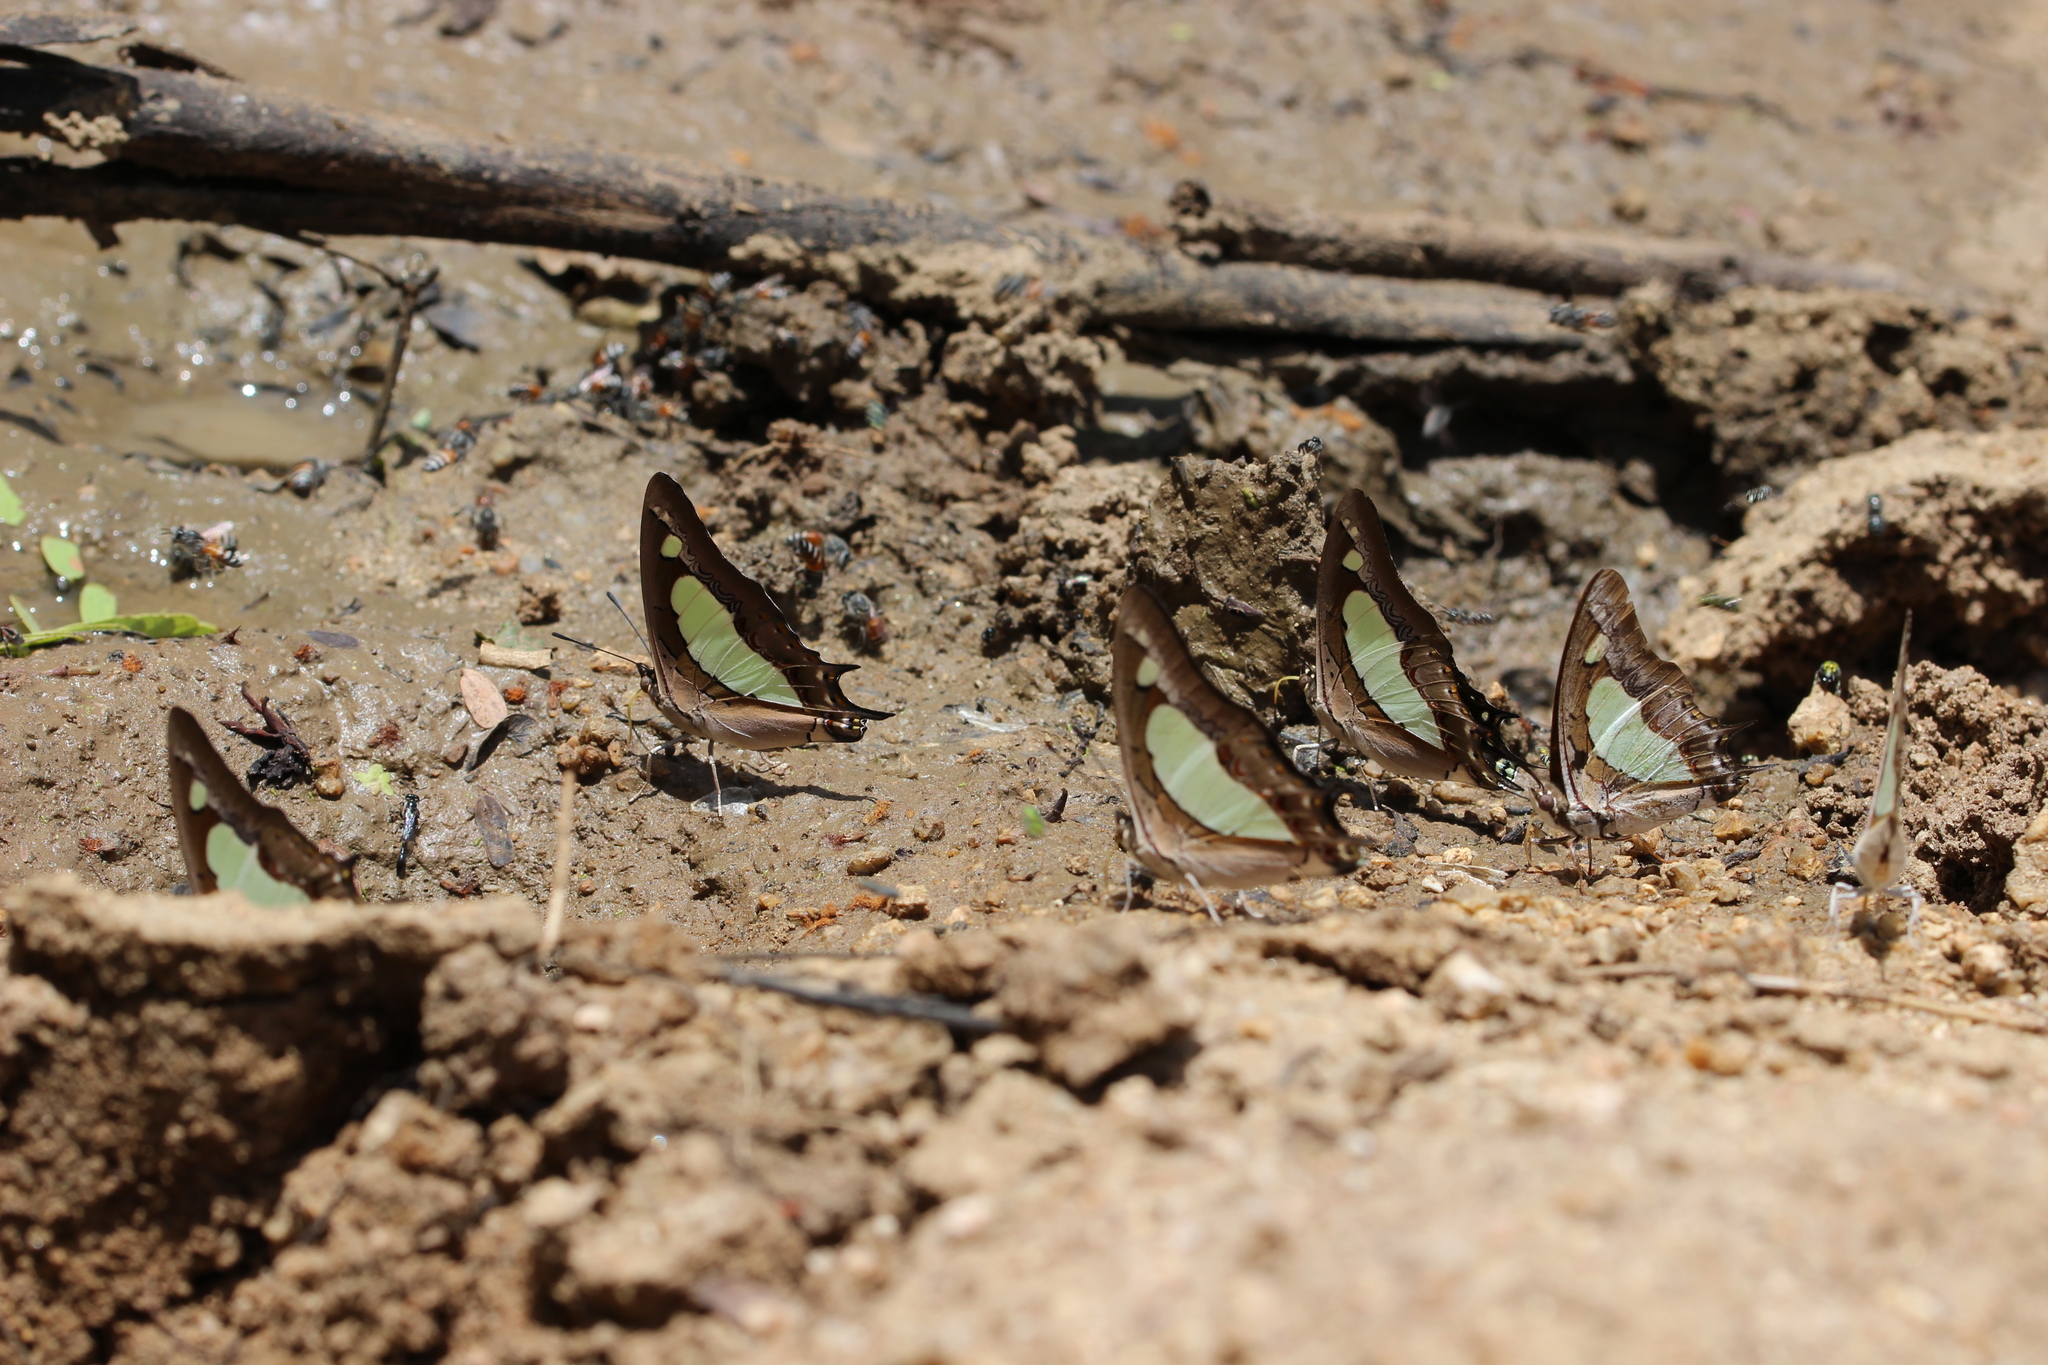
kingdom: Animalia
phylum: Arthropoda
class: Insecta
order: Lepidoptera
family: Nymphalidae
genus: Polyura
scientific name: Polyura agrarius
